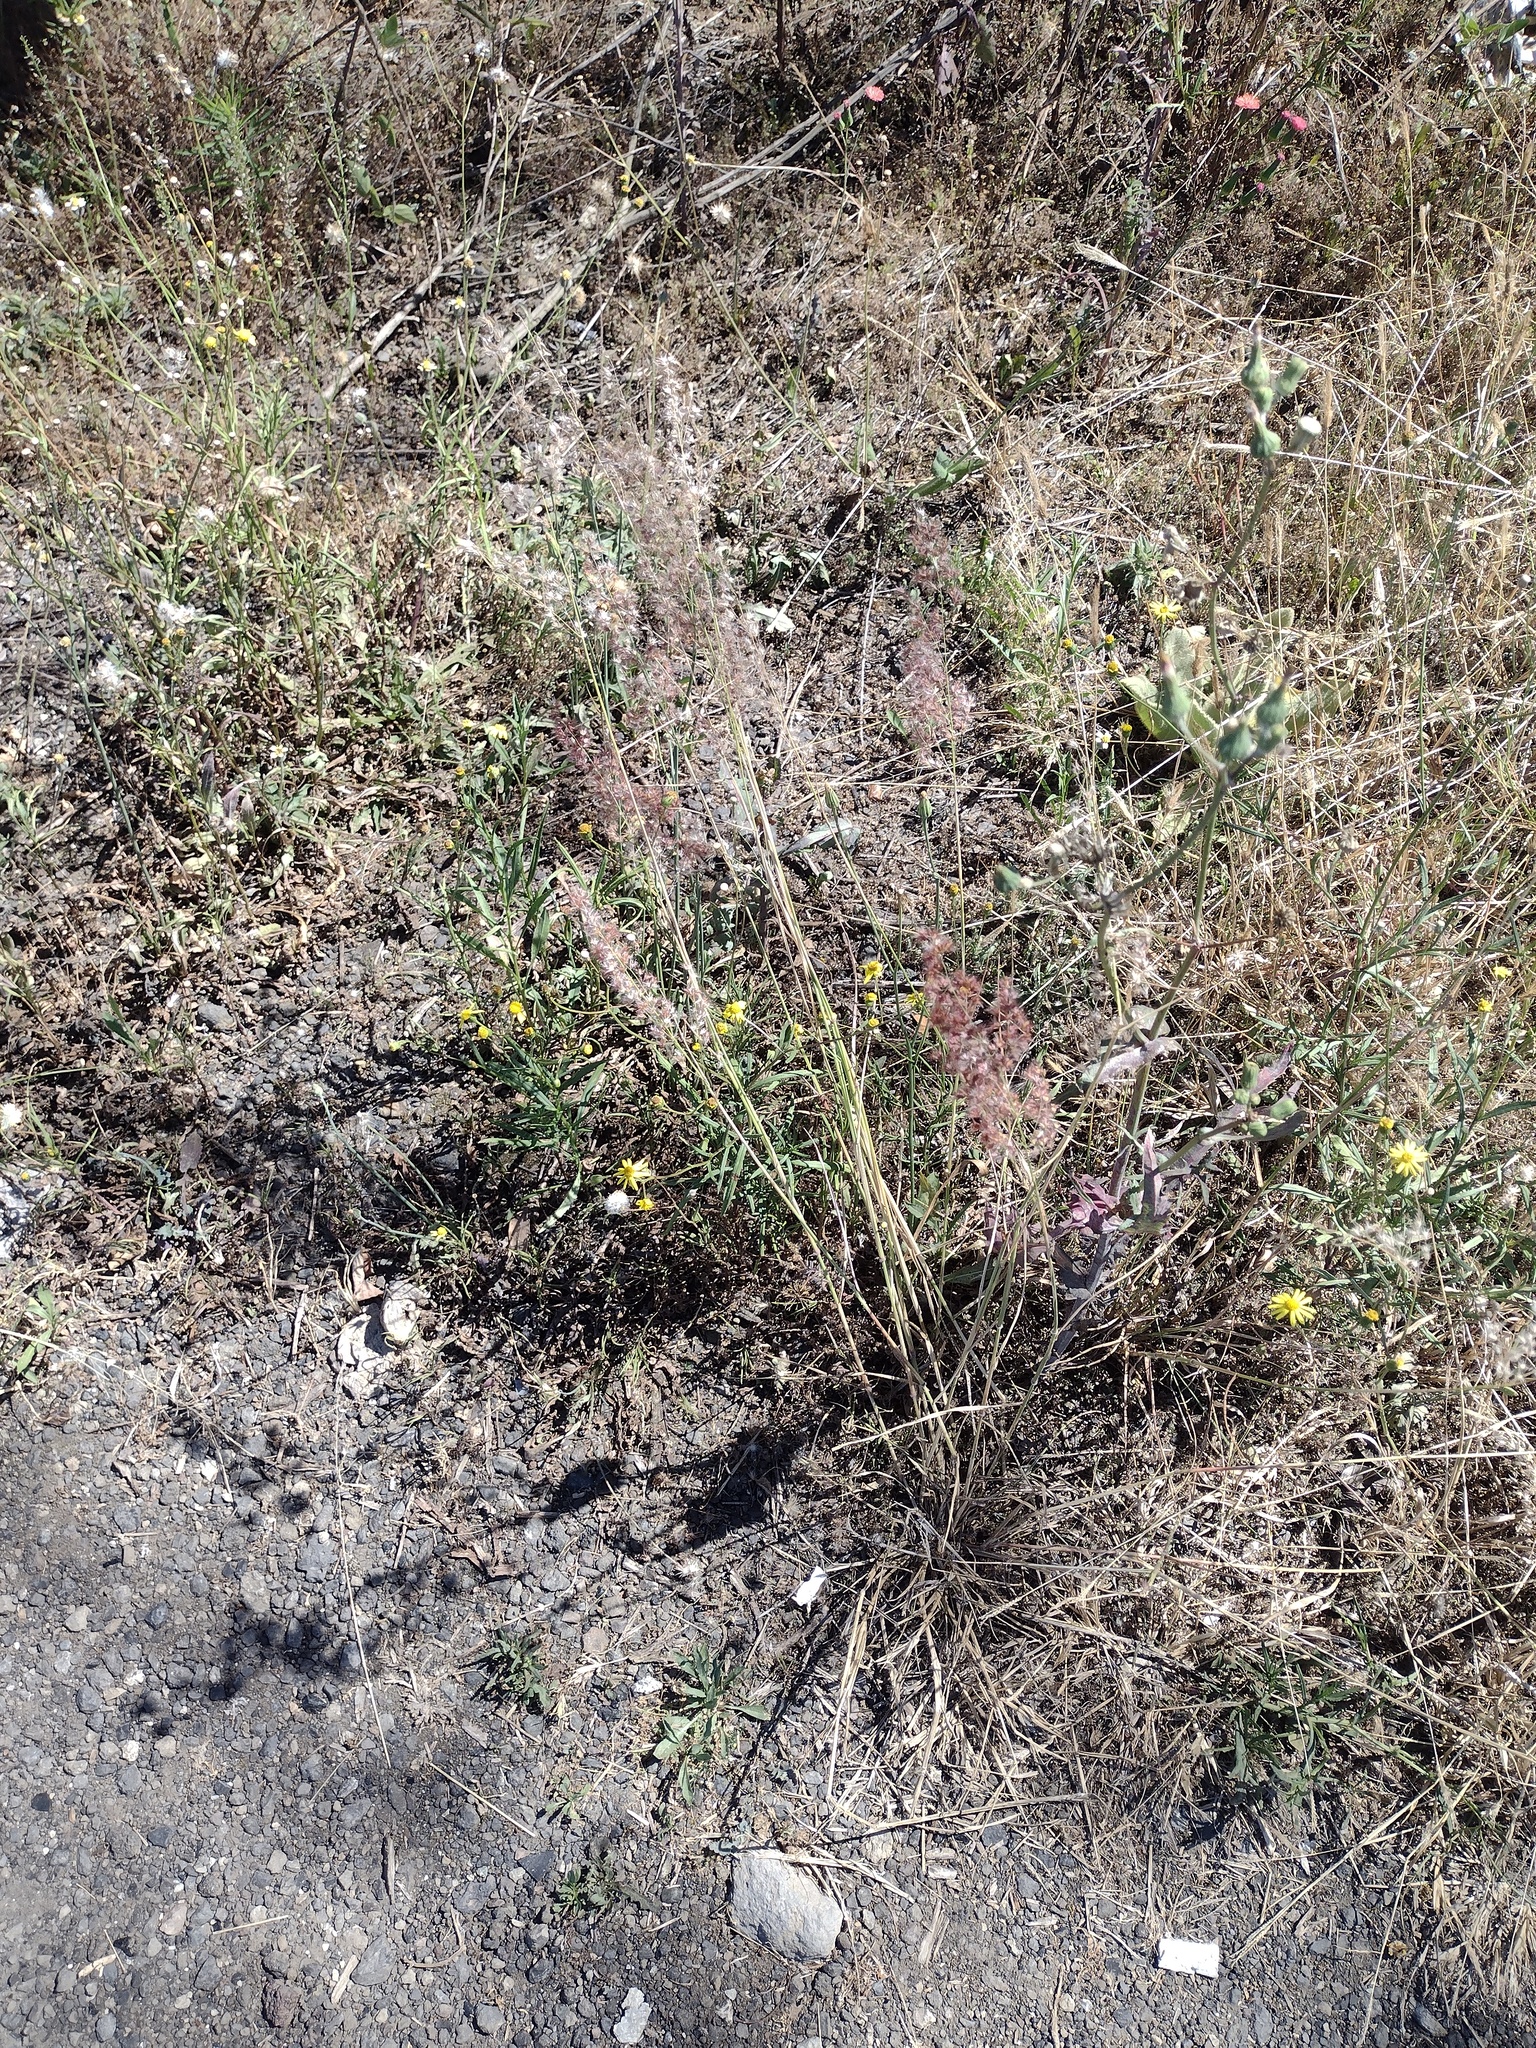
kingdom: Plantae
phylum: Tracheophyta
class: Liliopsida
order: Poales
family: Poaceae
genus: Melinis
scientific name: Melinis repens
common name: Rose natal grass
